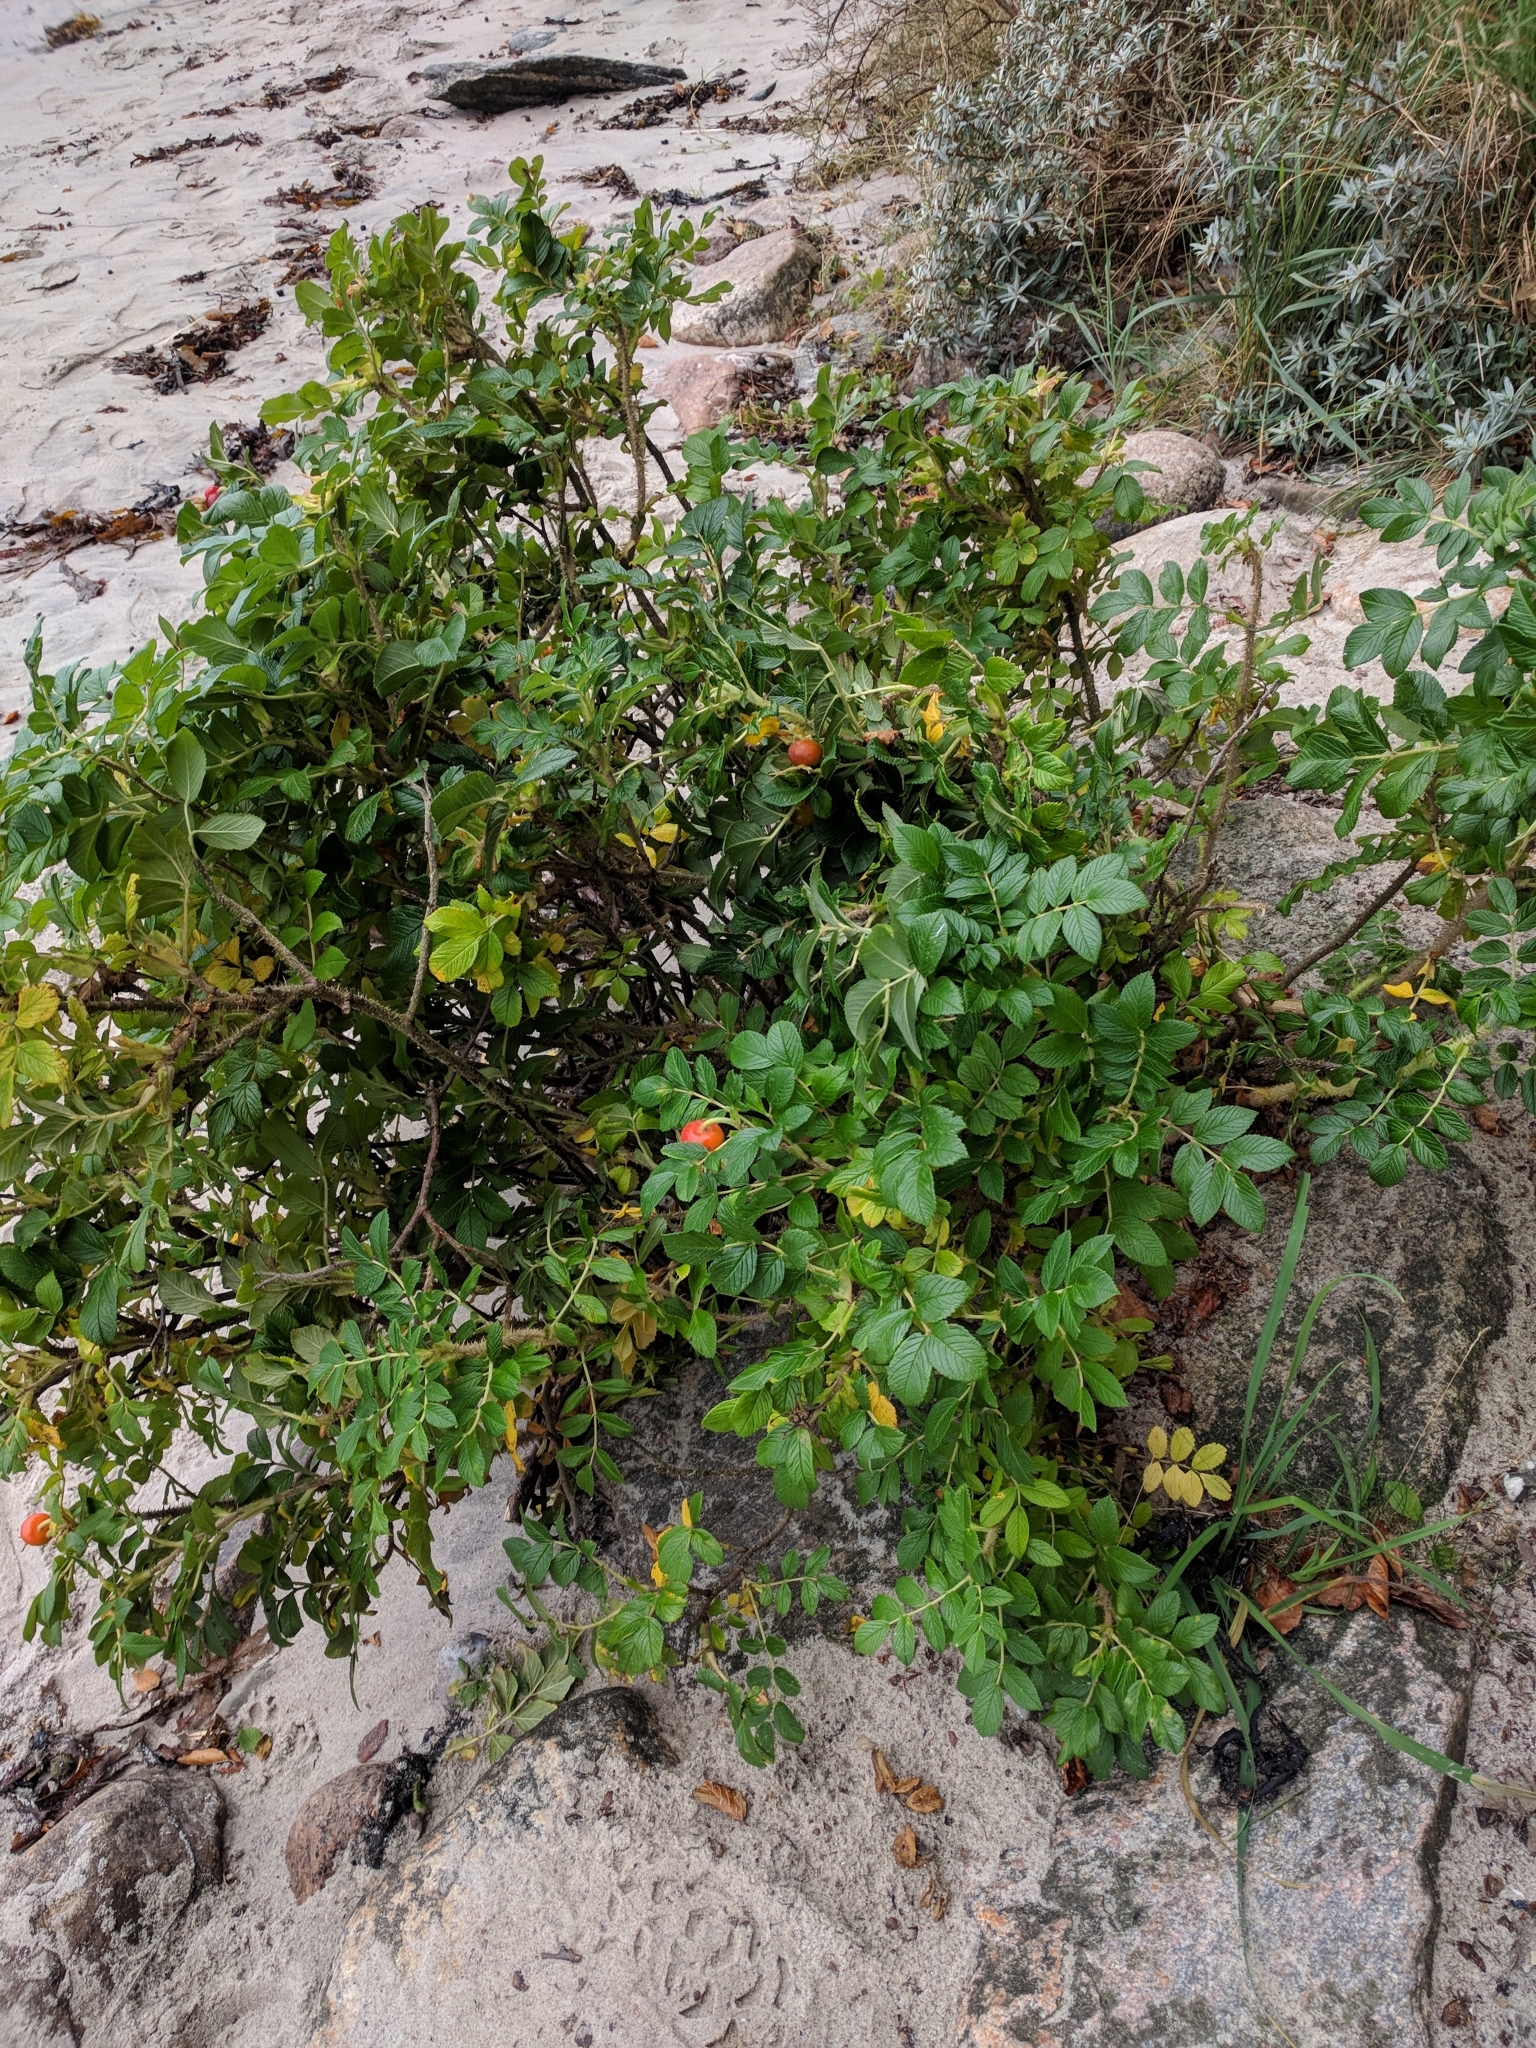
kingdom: Plantae
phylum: Tracheophyta
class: Magnoliopsida
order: Rosales
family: Rosaceae
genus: Rosa
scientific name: Rosa rugosa
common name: Japanese rose
